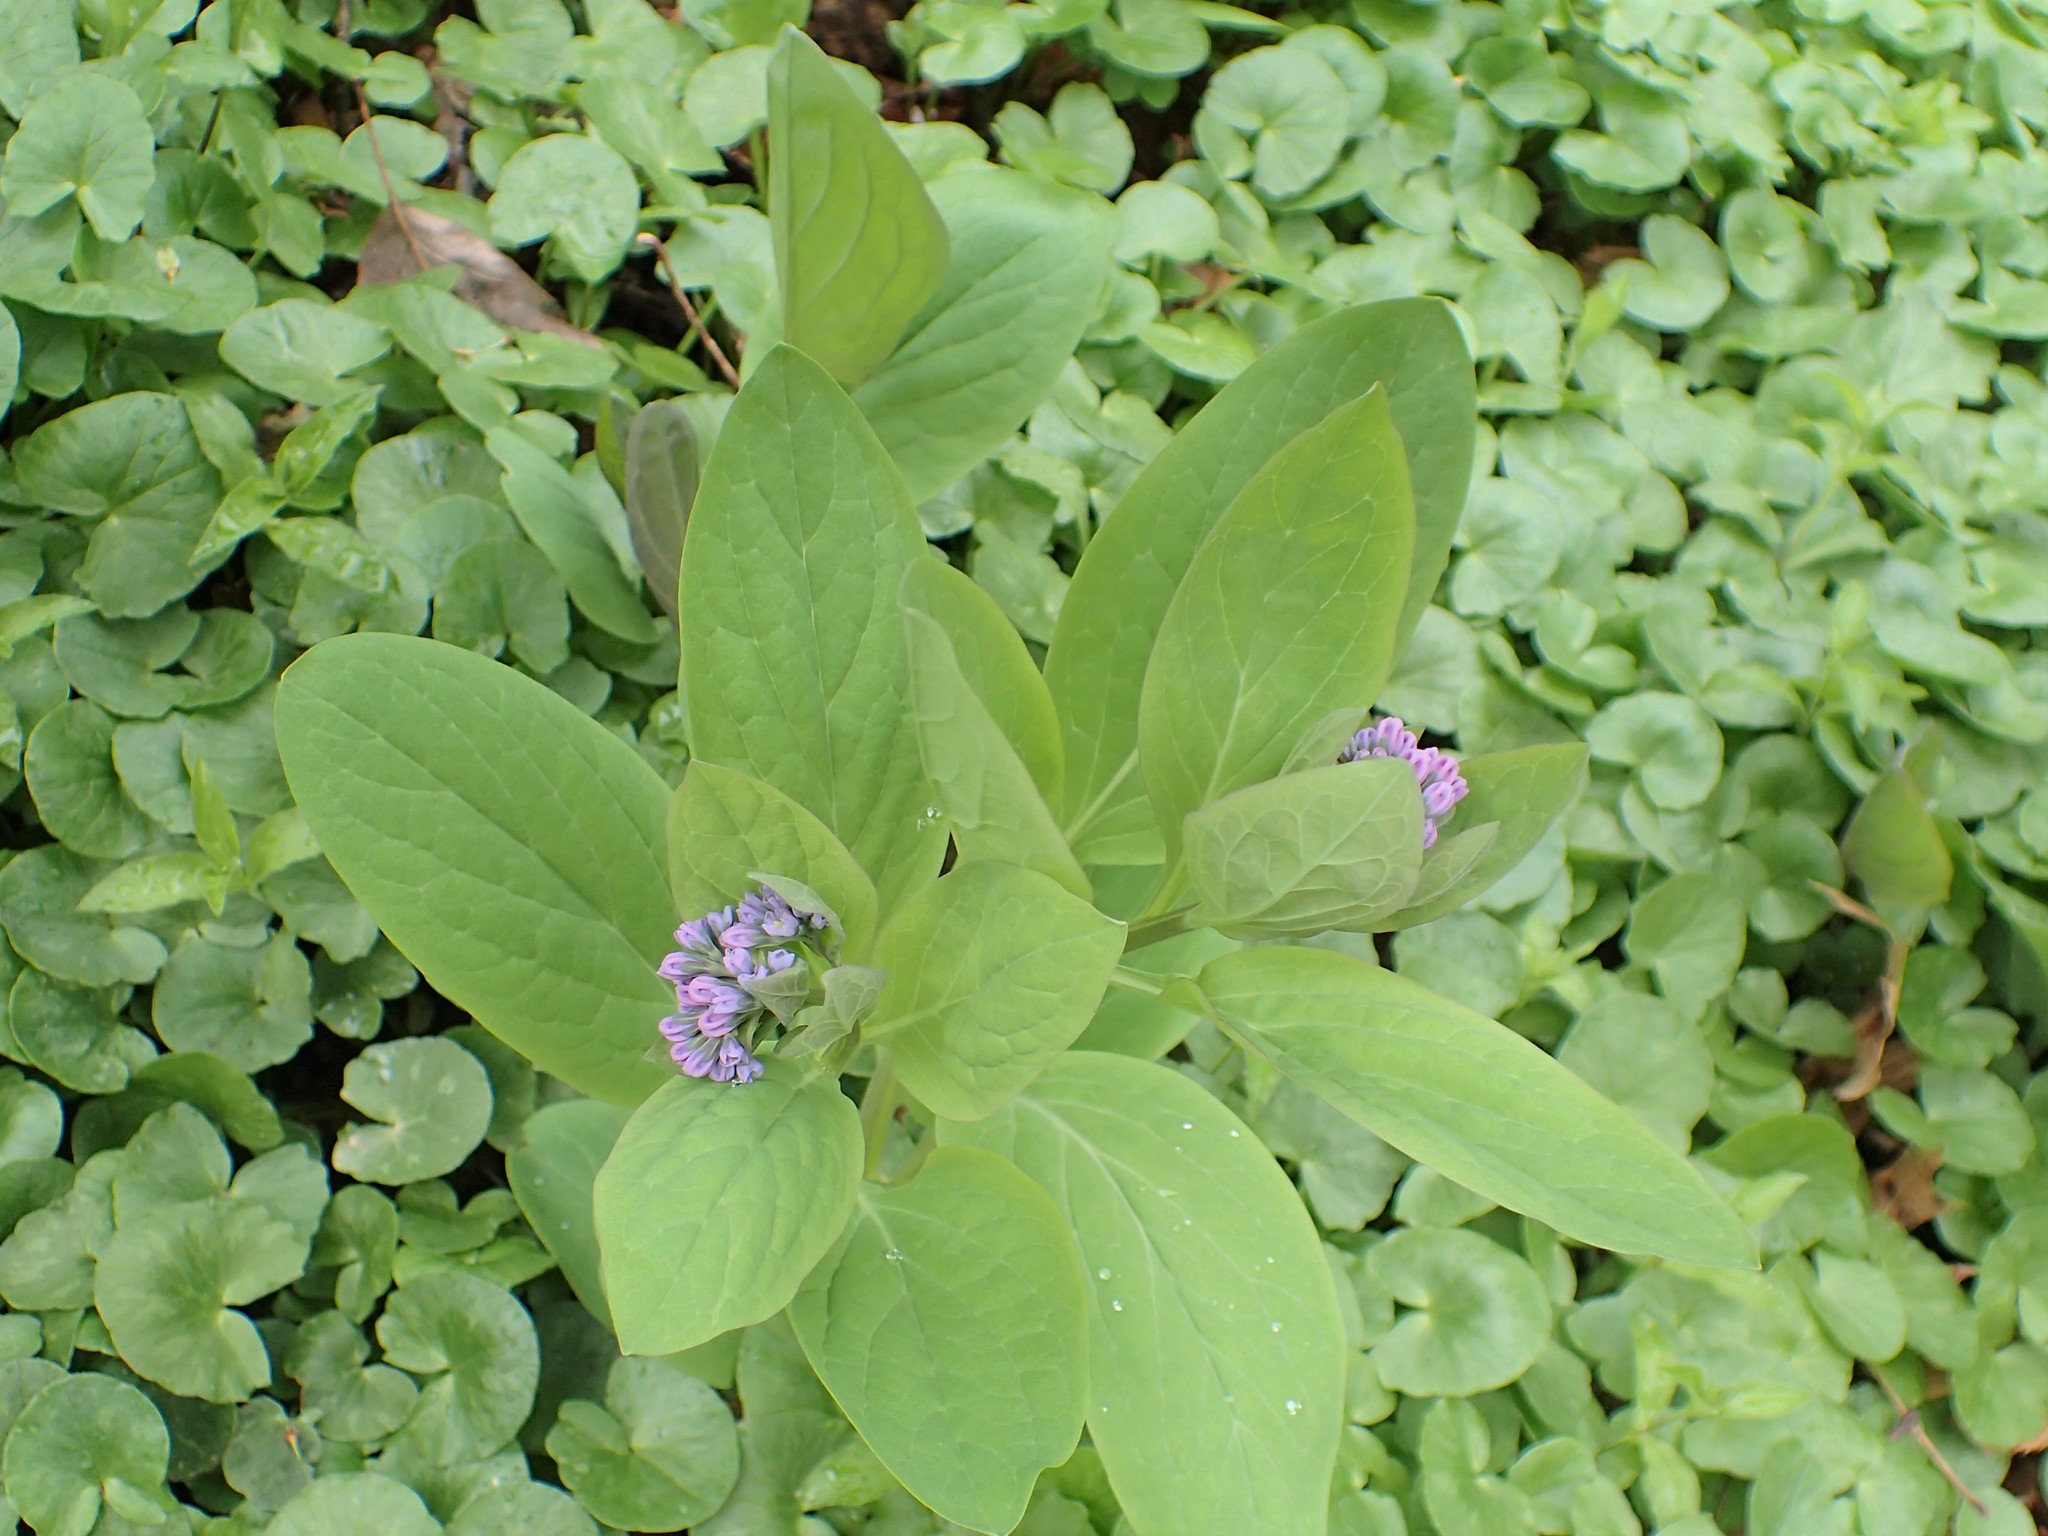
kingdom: Plantae
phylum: Tracheophyta
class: Magnoliopsida
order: Boraginales
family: Boraginaceae
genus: Mertensia
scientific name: Mertensia virginica
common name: Virginia bluebells
